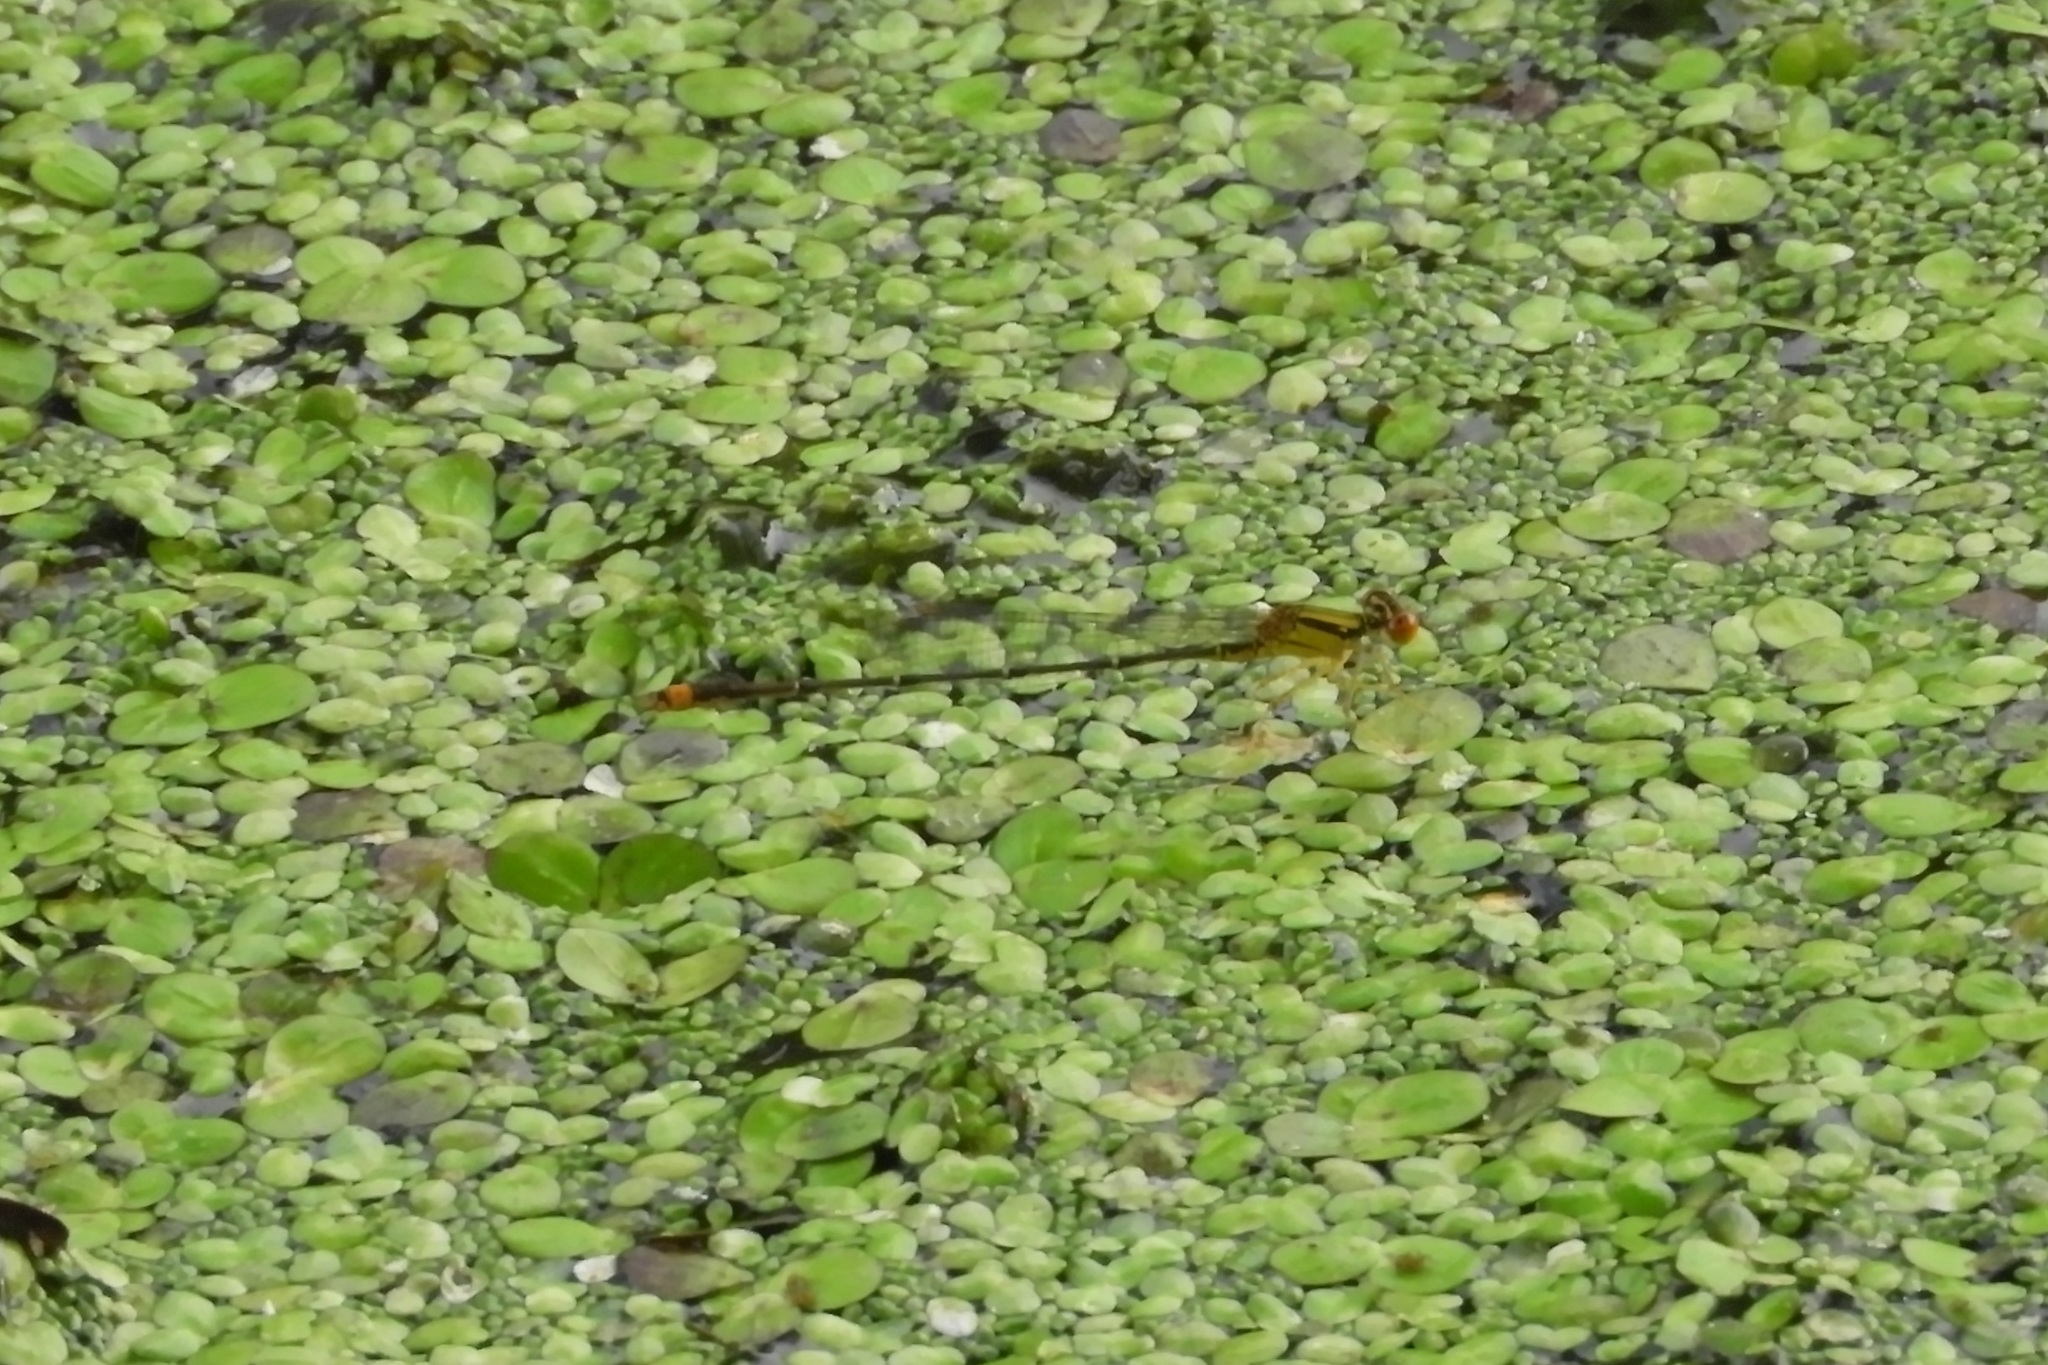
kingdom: Animalia
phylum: Arthropoda
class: Insecta
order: Odonata
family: Coenagrionidae
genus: Enallagma
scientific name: Enallagma signatum
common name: Orange bluet
